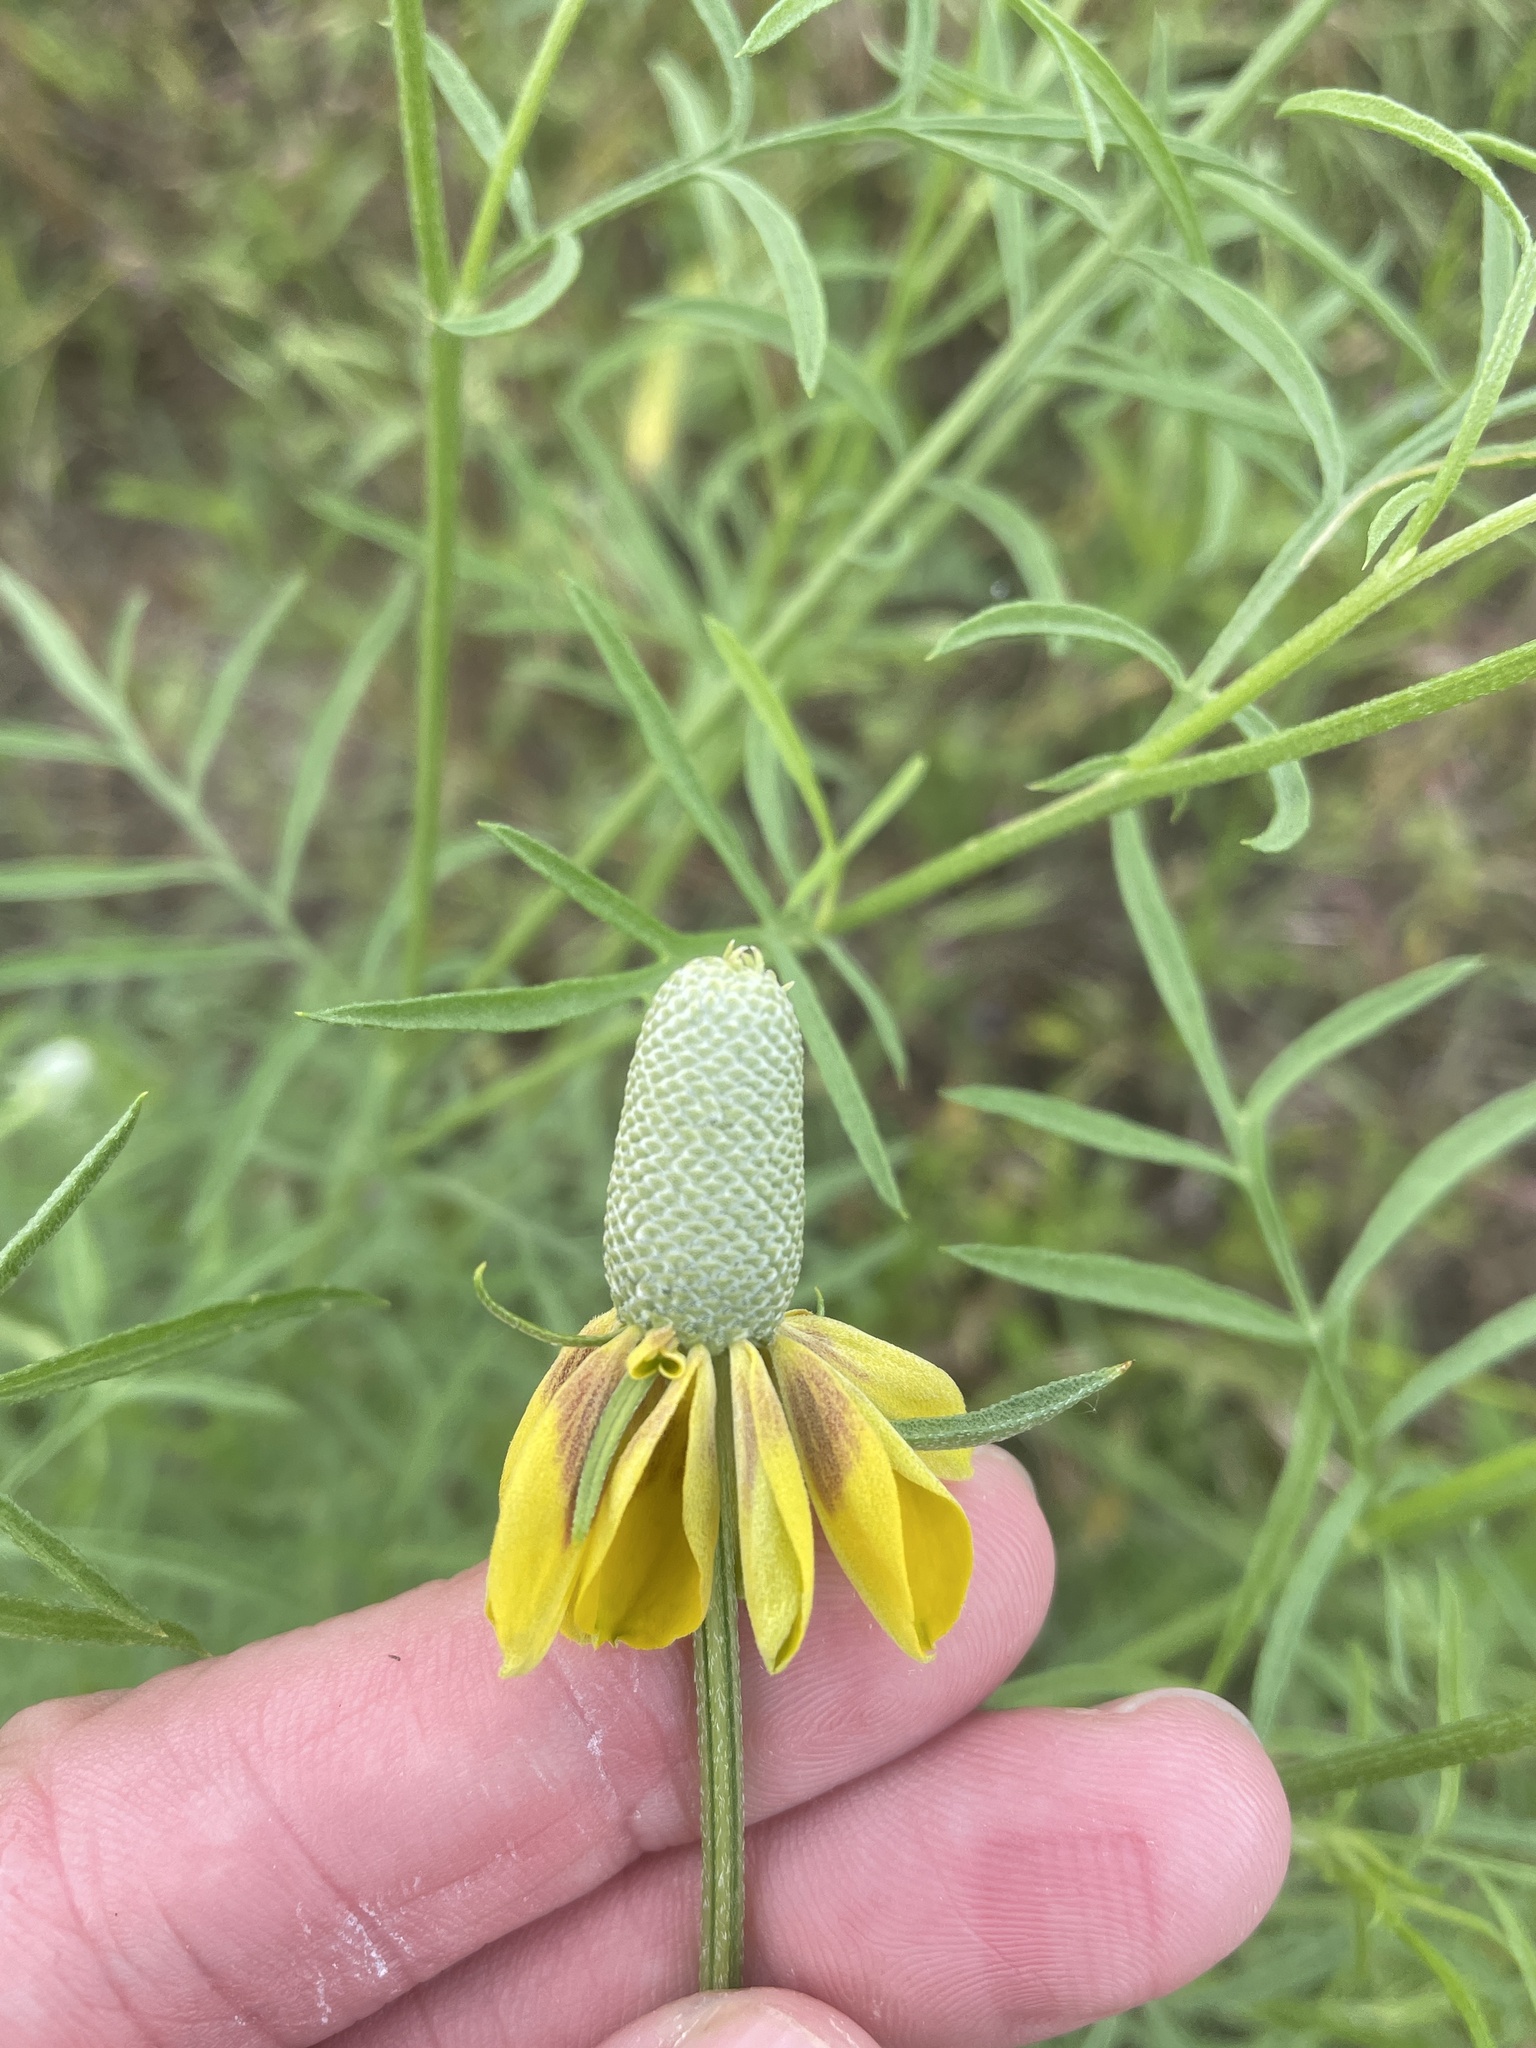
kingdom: Plantae
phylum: Tracheophyta
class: Magnoliopsida
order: Asterales
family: Asteraceae
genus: Ratibida
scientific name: Ratibida columnifera
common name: Prairie coneflower
